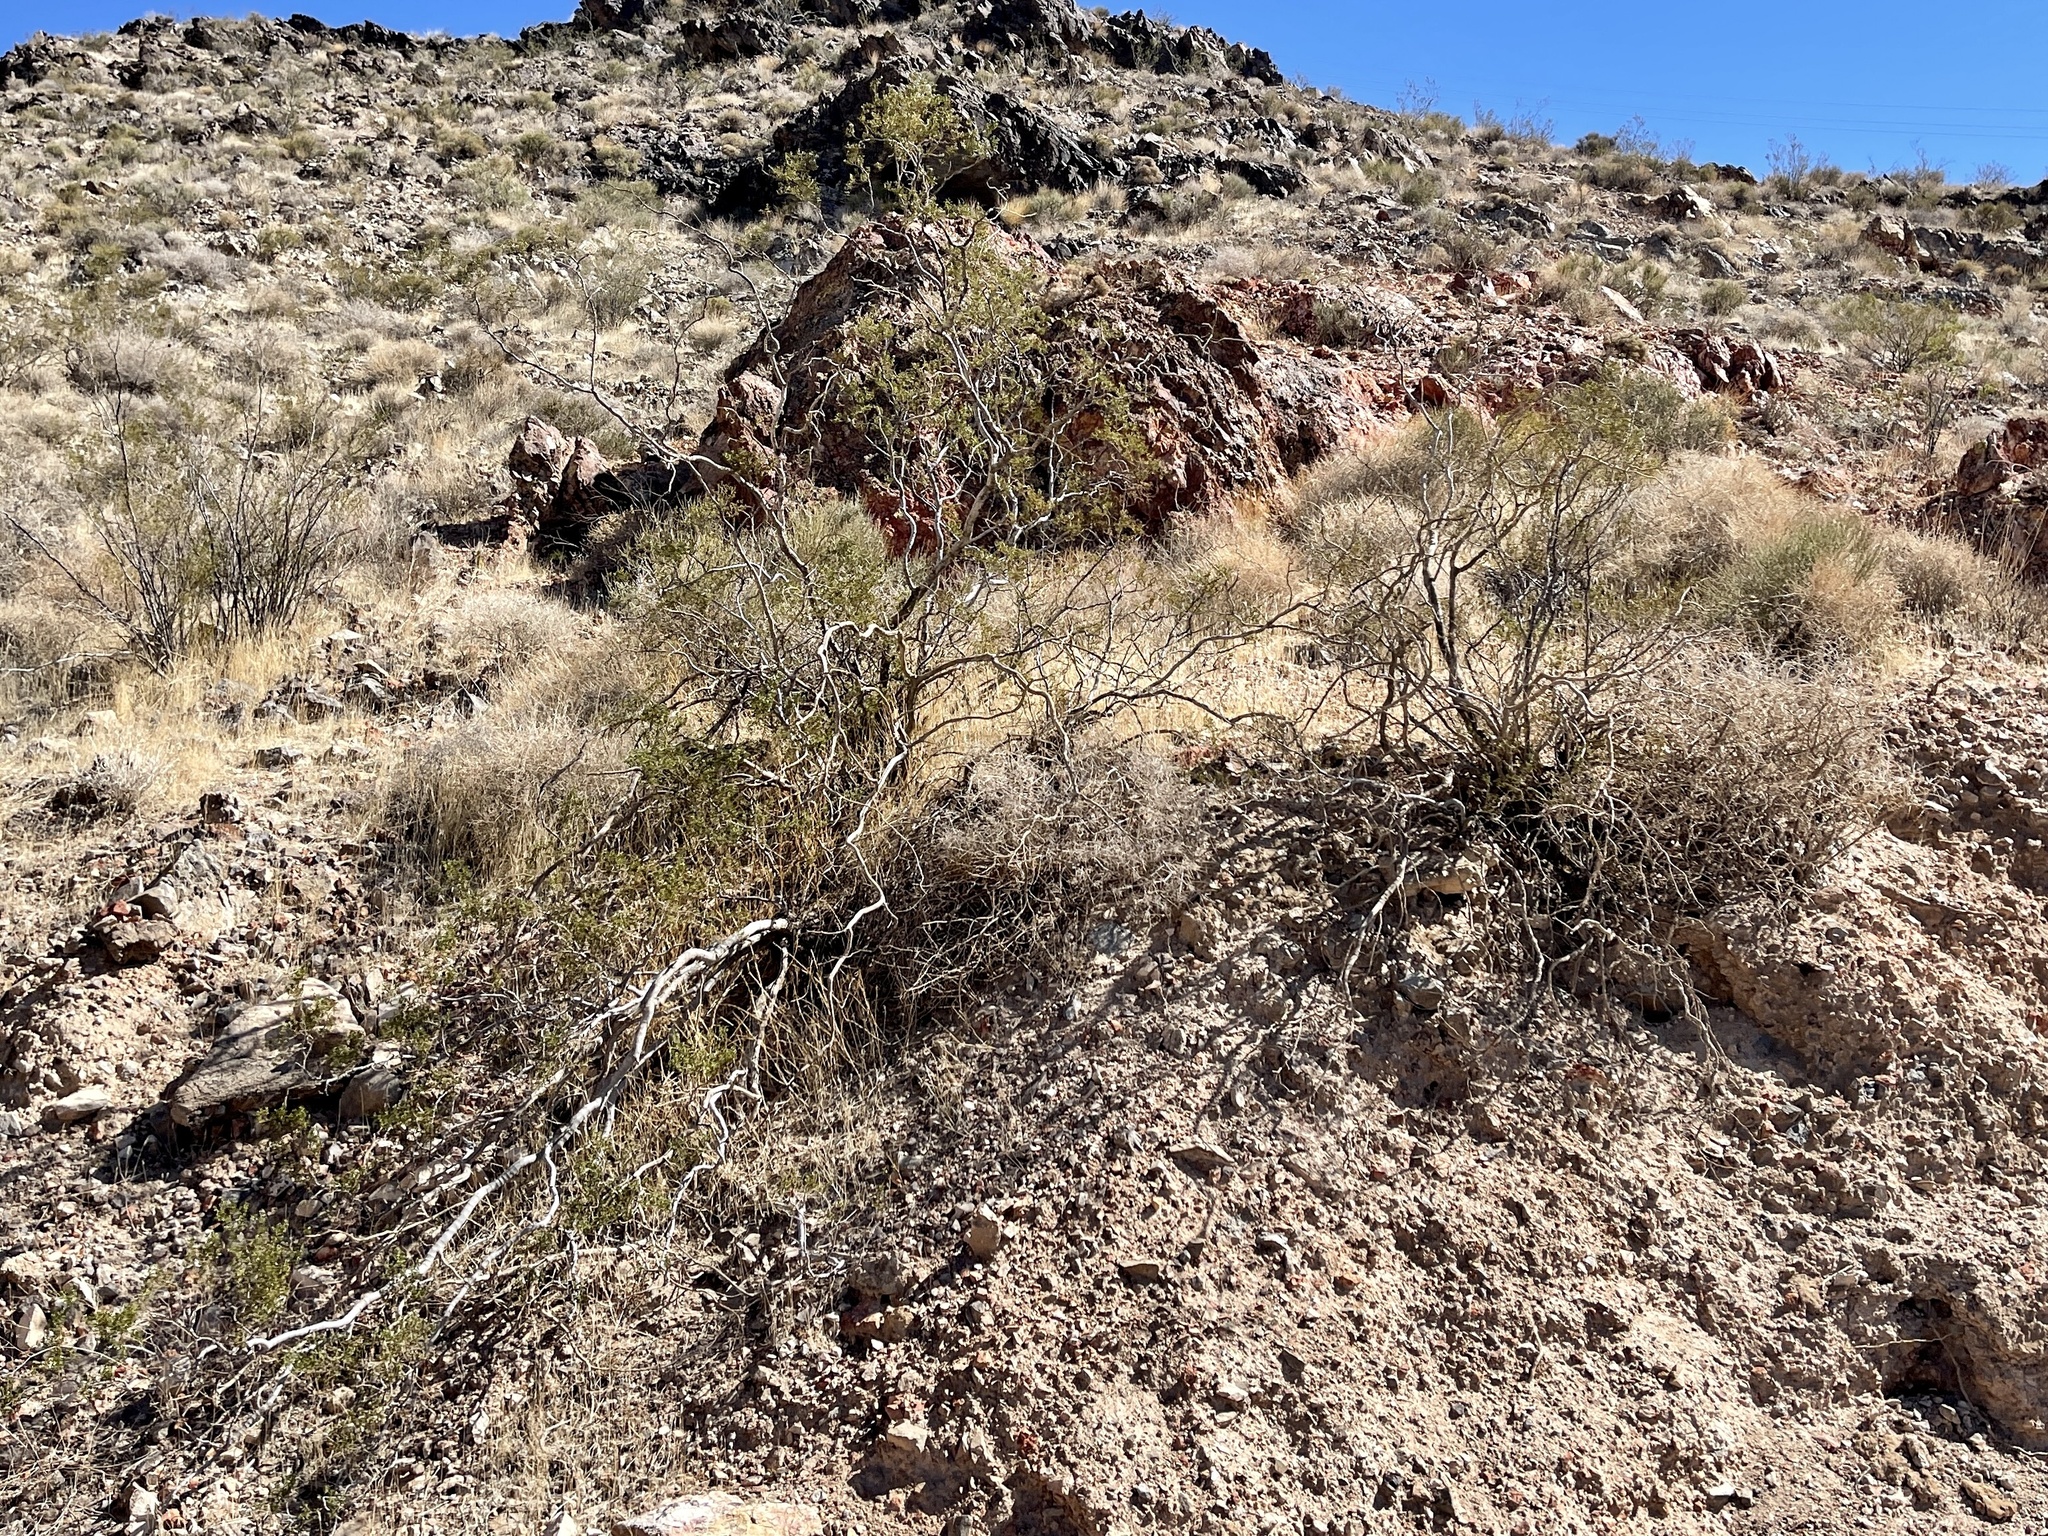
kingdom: Plantae
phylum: Tracheophyta
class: Magnoliopsida
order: Zygophyllales
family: Zygophyllaceae
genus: Larrea
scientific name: Larrea tridentata
